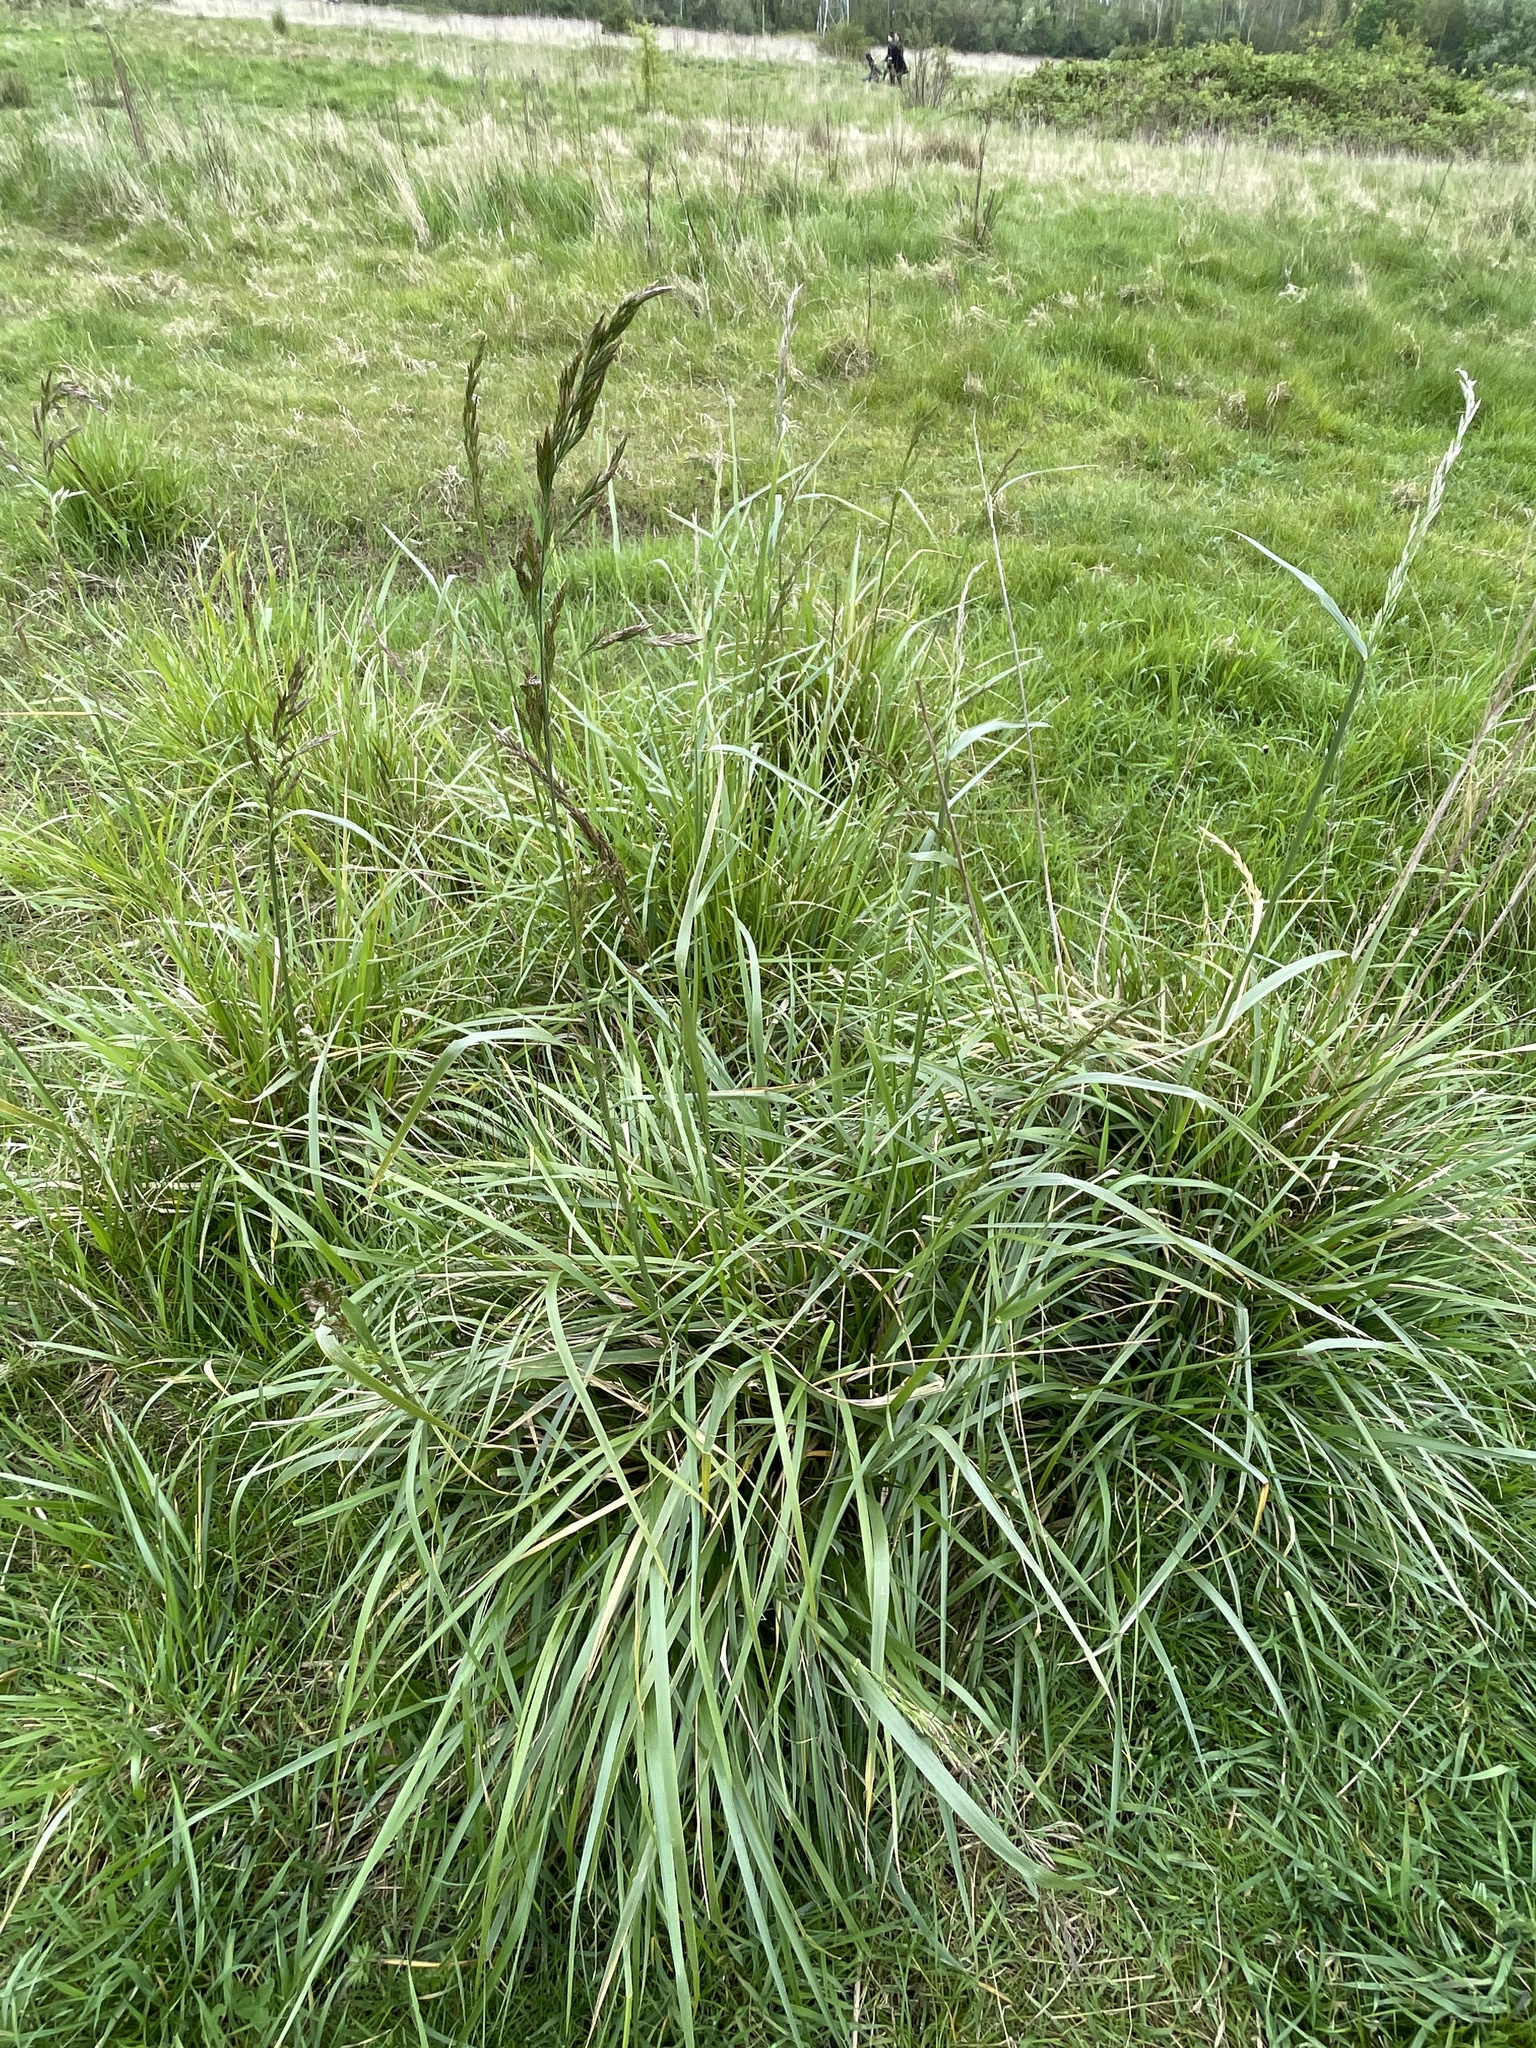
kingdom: Plantae
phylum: Tracheophyta
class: Liliopsida
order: Poales
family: Poaceae
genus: Lolium
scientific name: Lolium arundinaceum
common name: Reed fescue
